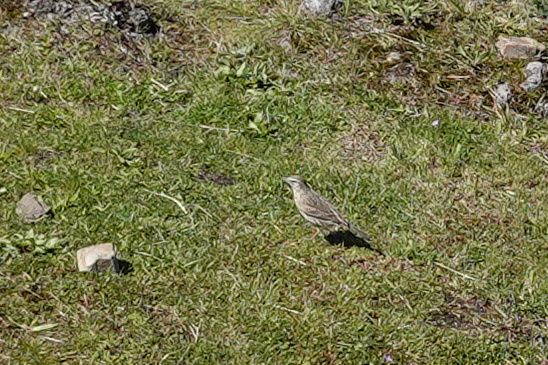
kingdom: Animalia
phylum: Chordata
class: Aves
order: Passeriformes
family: Motacillidae
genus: Anthus
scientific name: Anthus novaeseelandiae
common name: New zealand pipit
